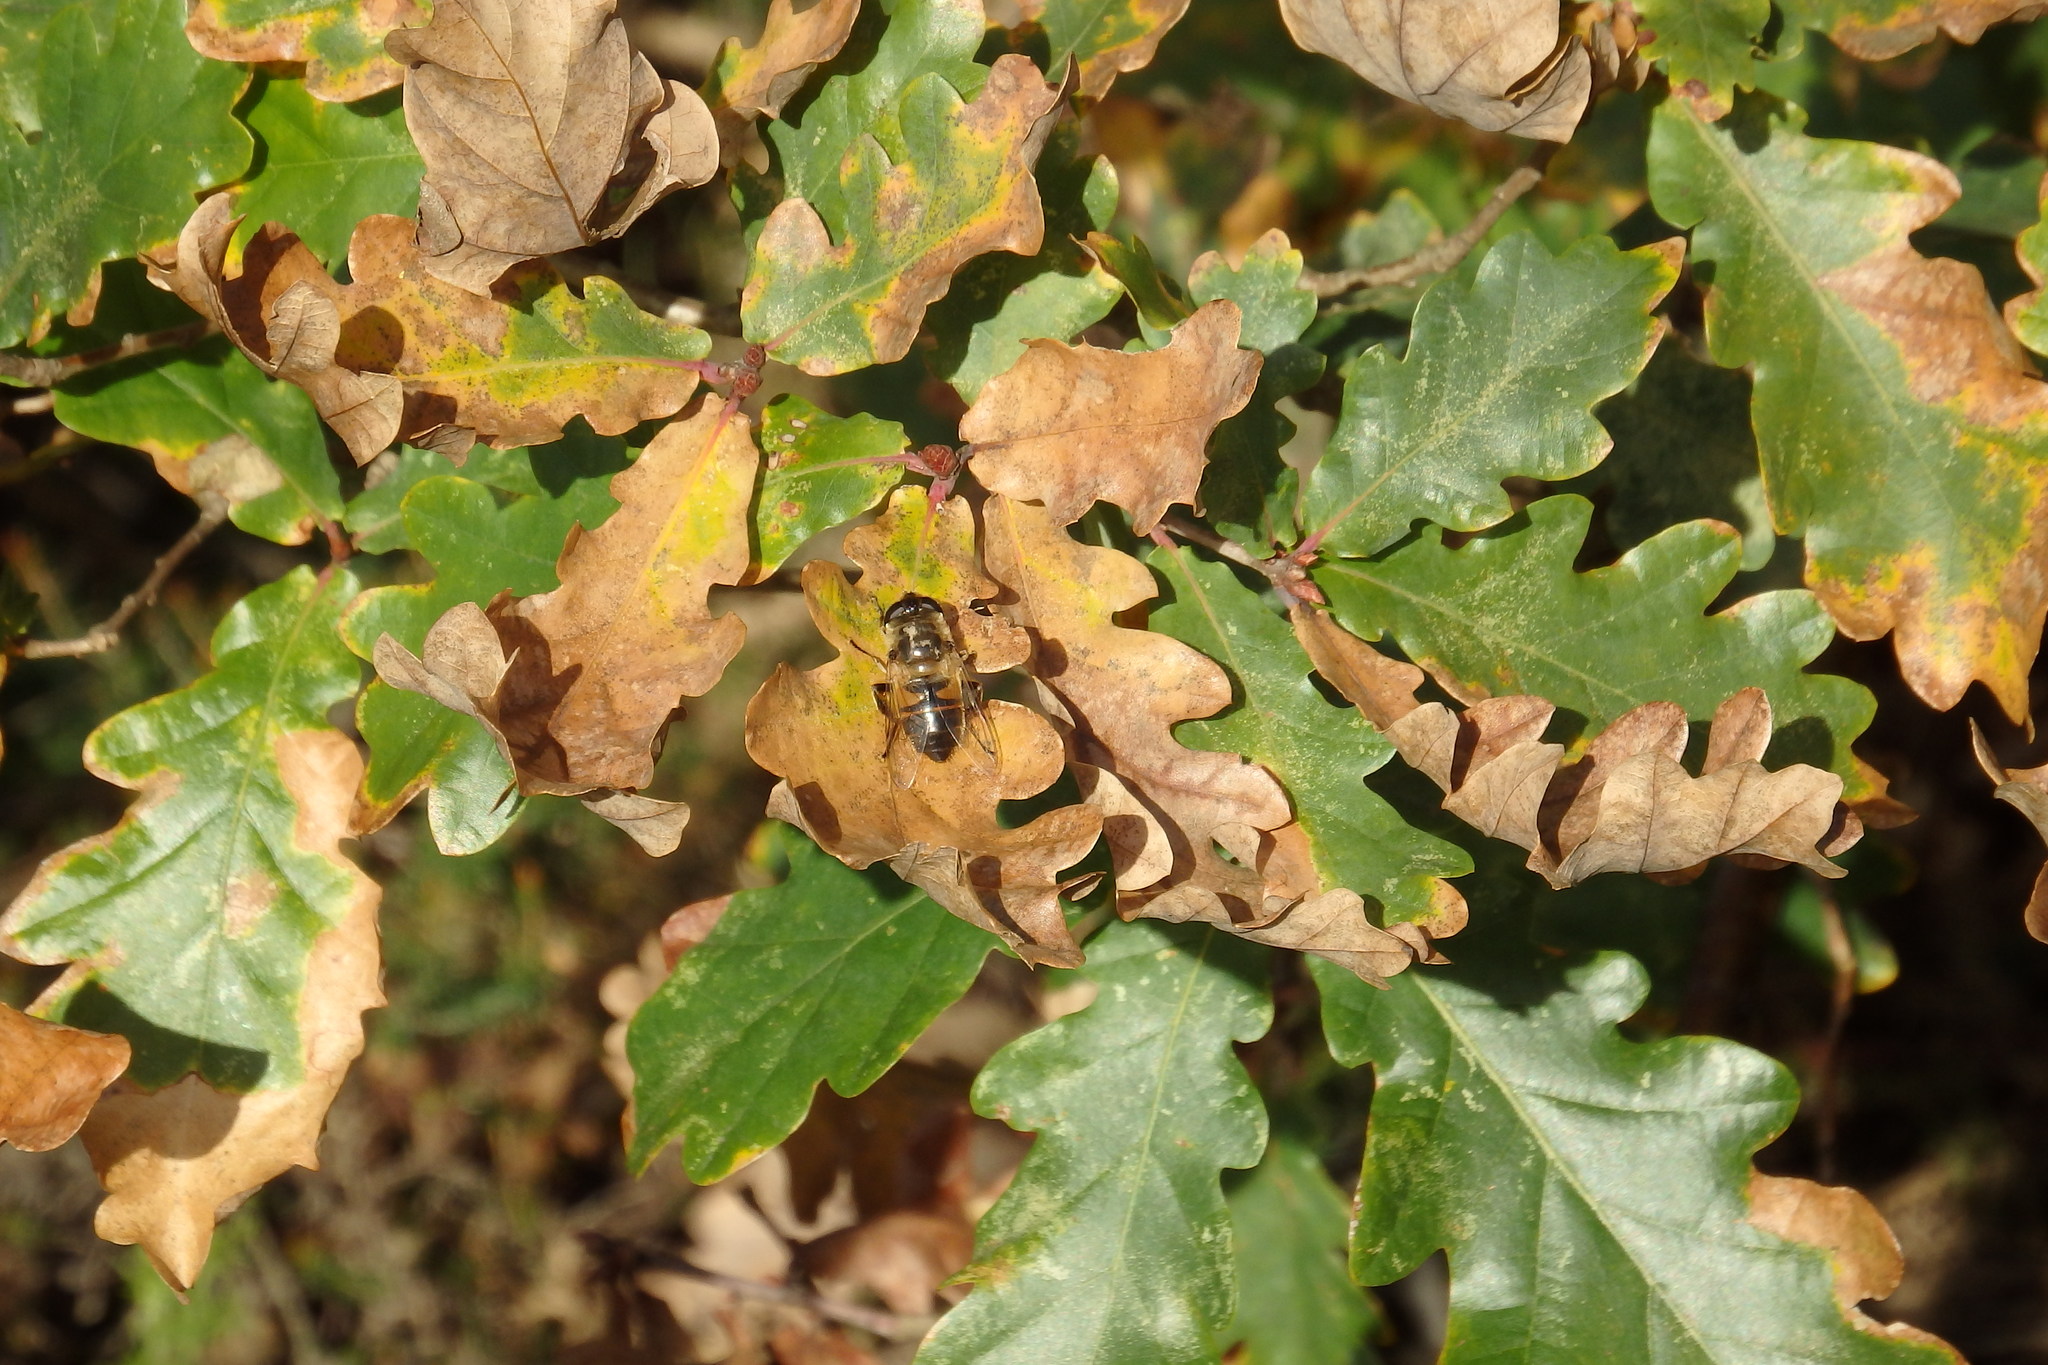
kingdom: Animalia
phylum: Arthropoda
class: Insecta
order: Diptera
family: Syrphidae
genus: Eristalis
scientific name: Eristalis tenax
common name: Drone fly
